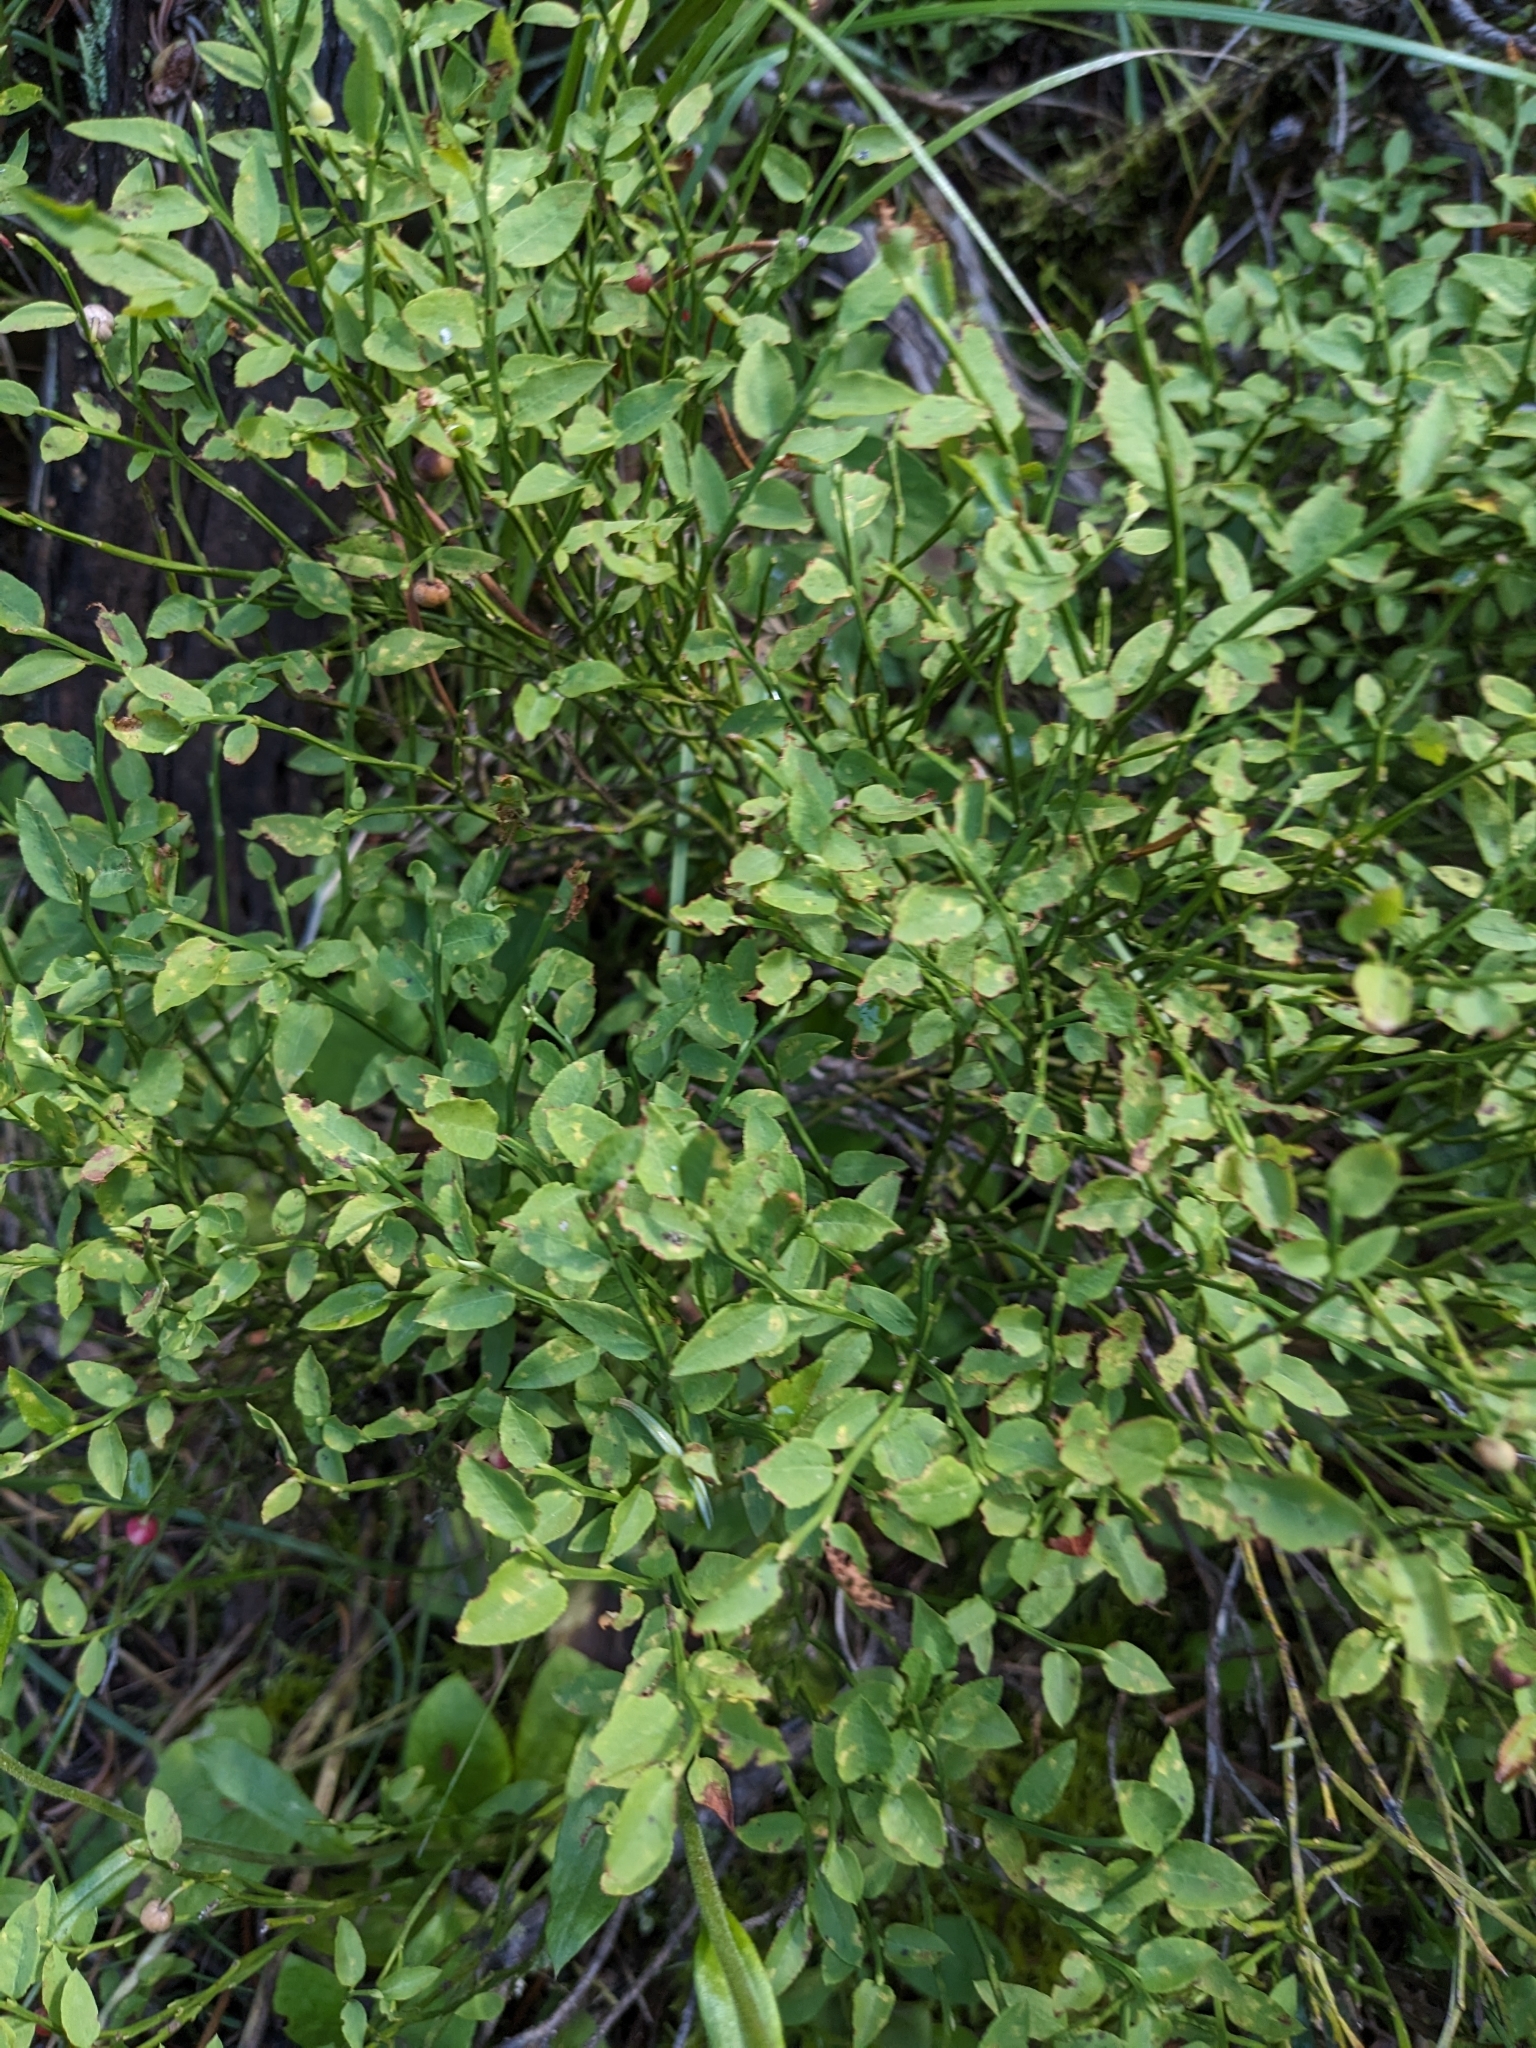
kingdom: Plantae
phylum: Tracheophyta
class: Magnoliopsida
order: Ericales
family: Ericaceae
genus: Vaccinium
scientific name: Vaccinium scoparium
